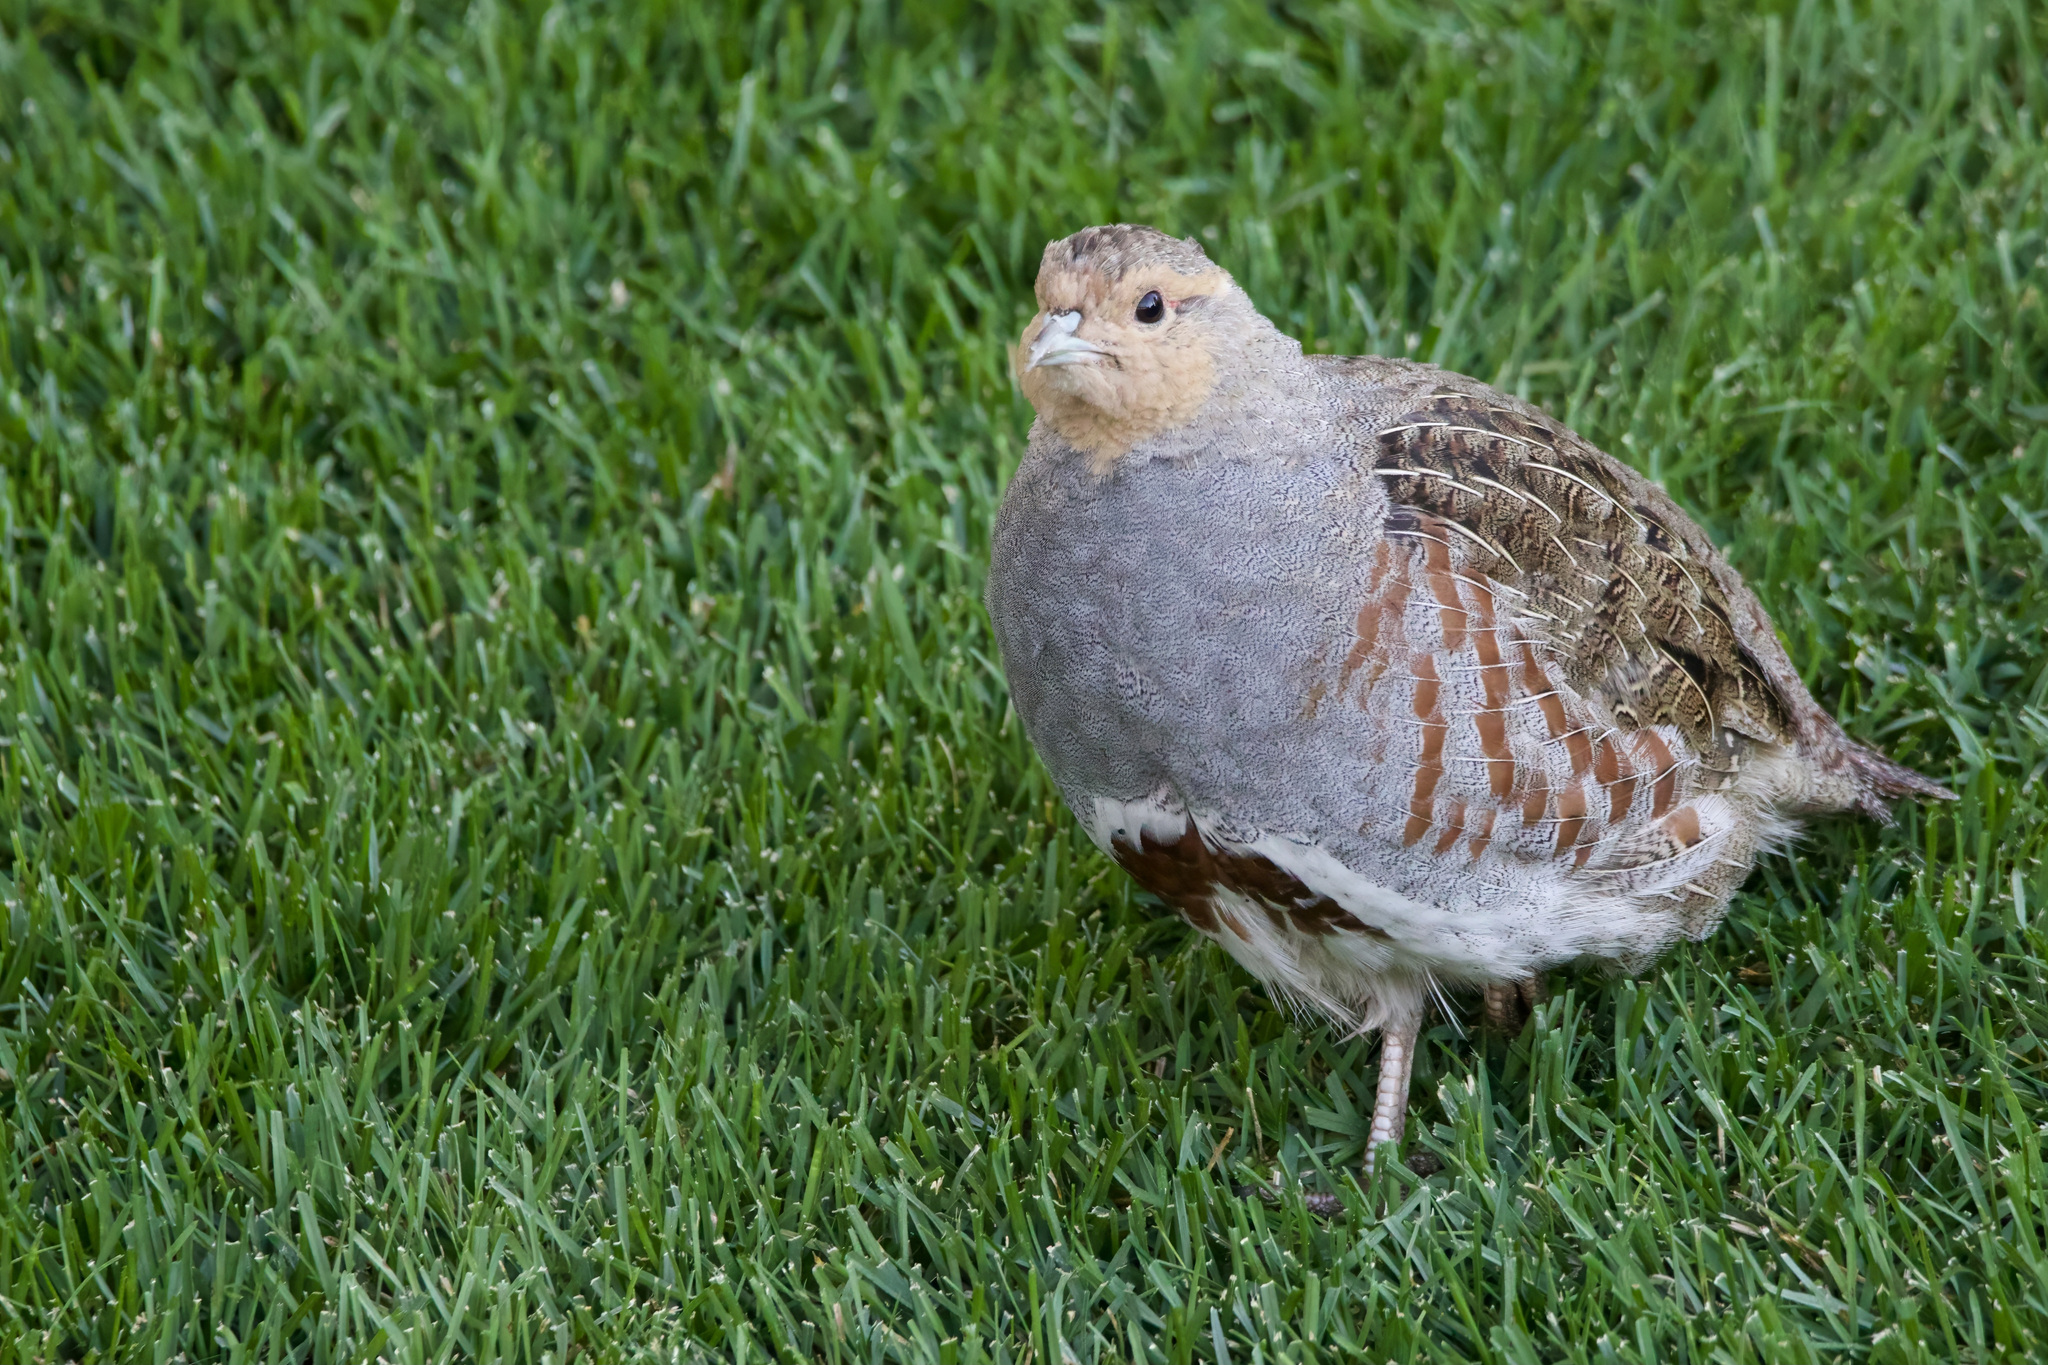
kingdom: Animalia
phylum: Chordata
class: Aves
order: Galliformes
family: Phasianidae
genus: Perdix
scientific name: Perdix perdix
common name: Grey partridge
